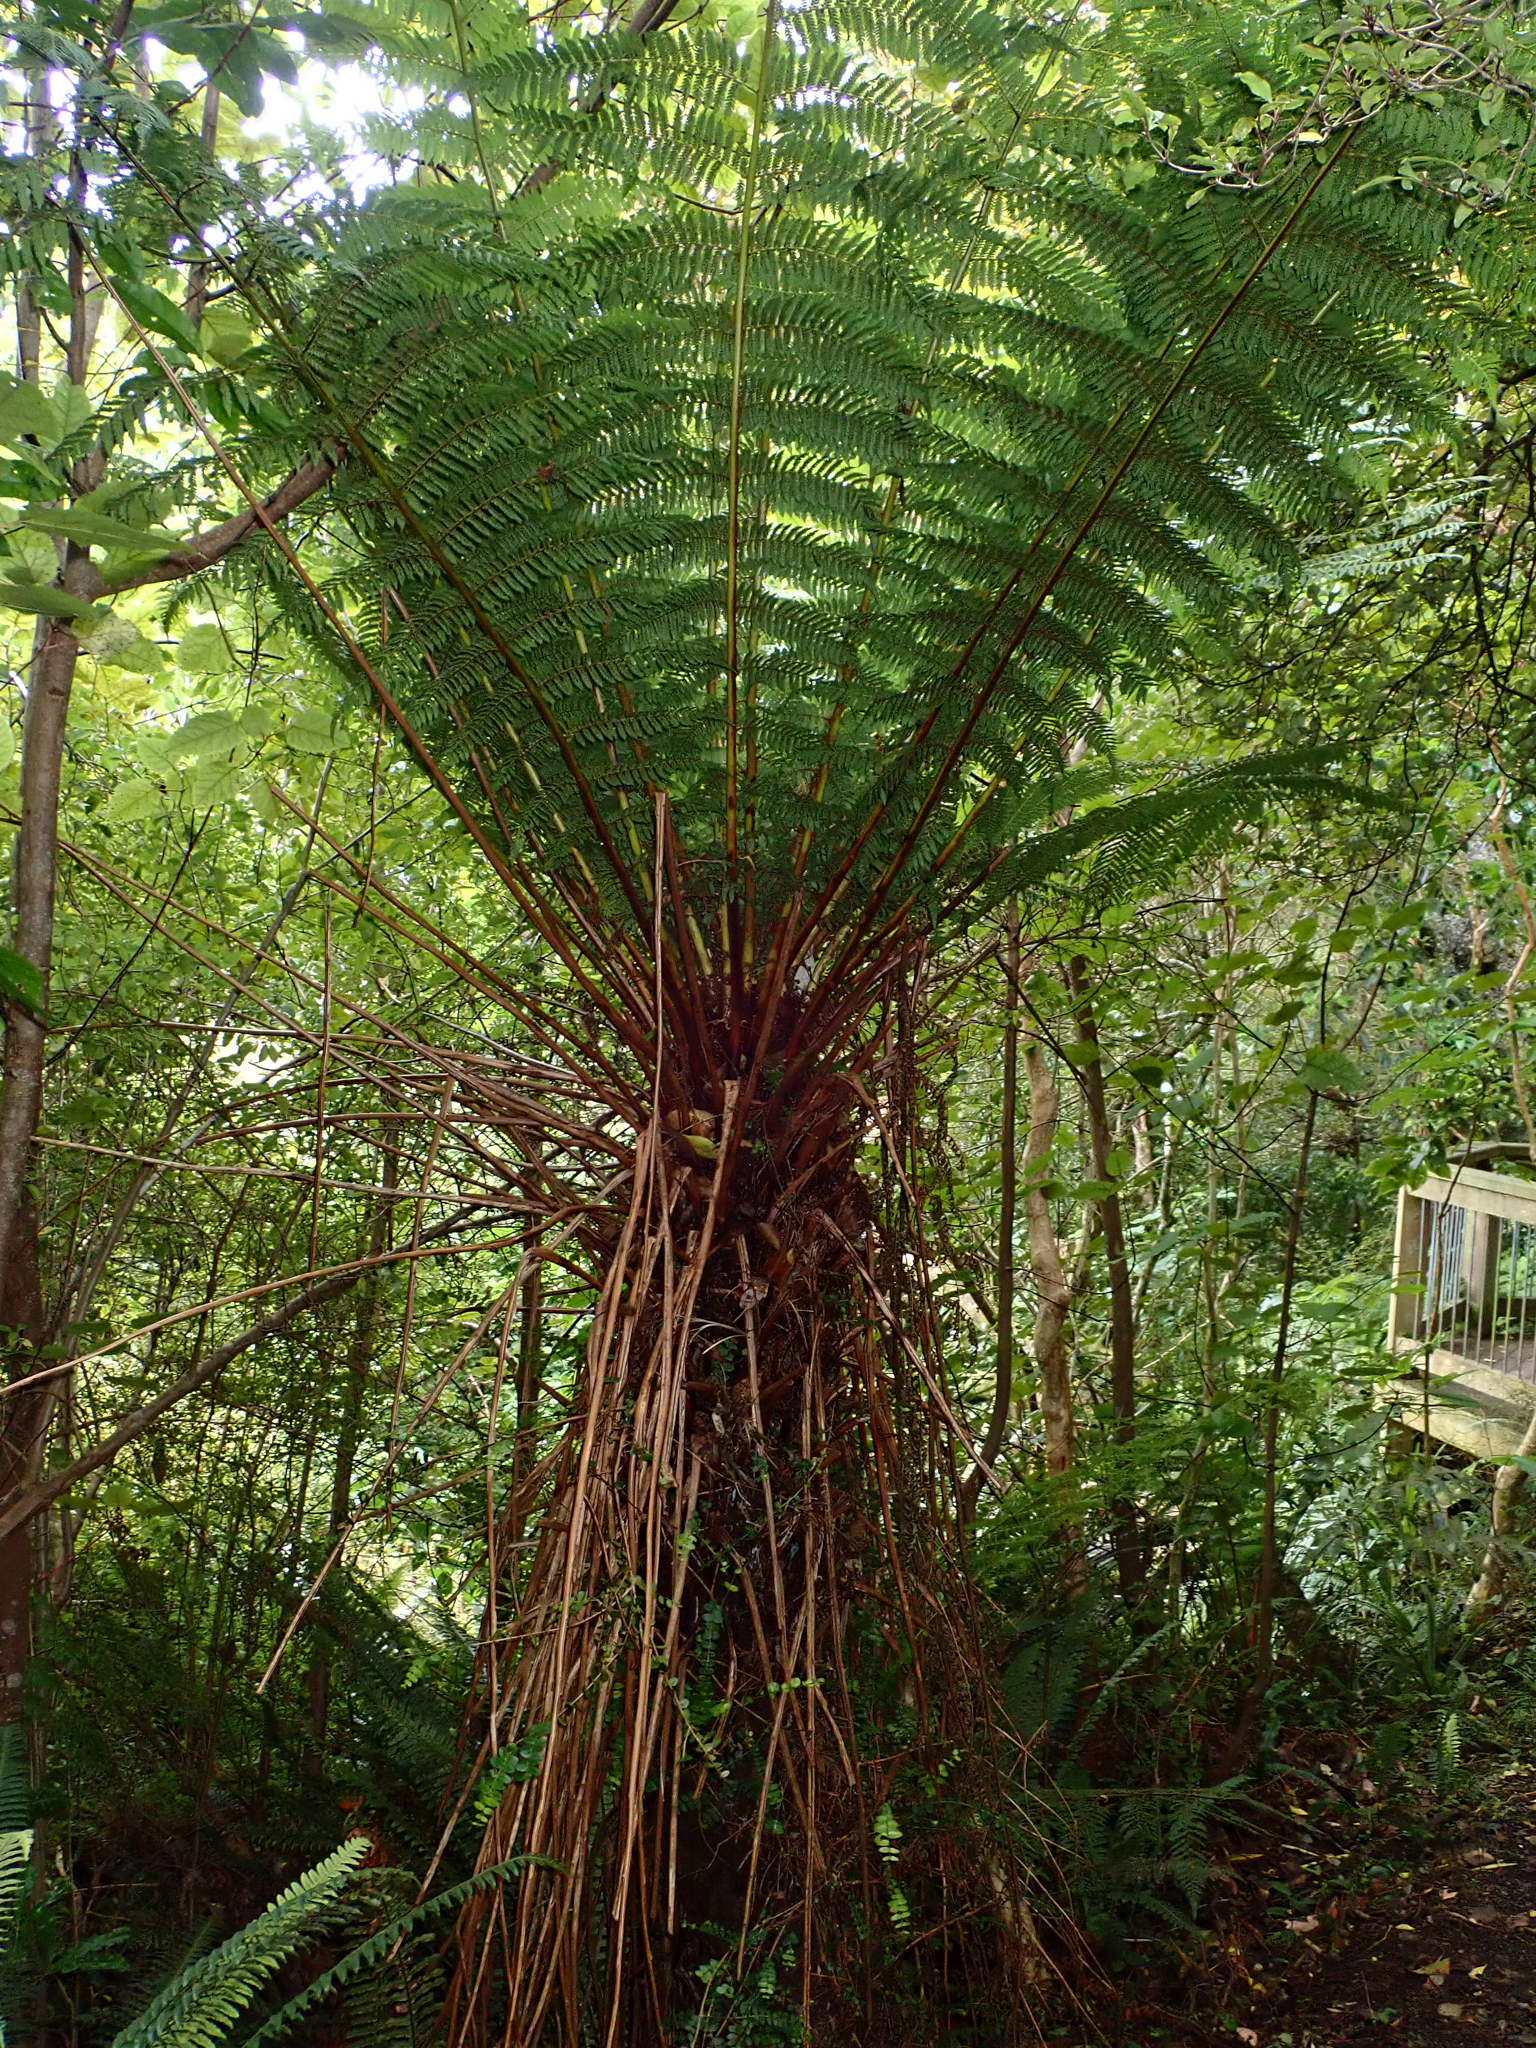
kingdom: Plantae
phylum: Tracheophyta
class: Polypodiopsida
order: Cyatheales
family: Cyatheaceae
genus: Alsophila
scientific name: Alsophila smithii
